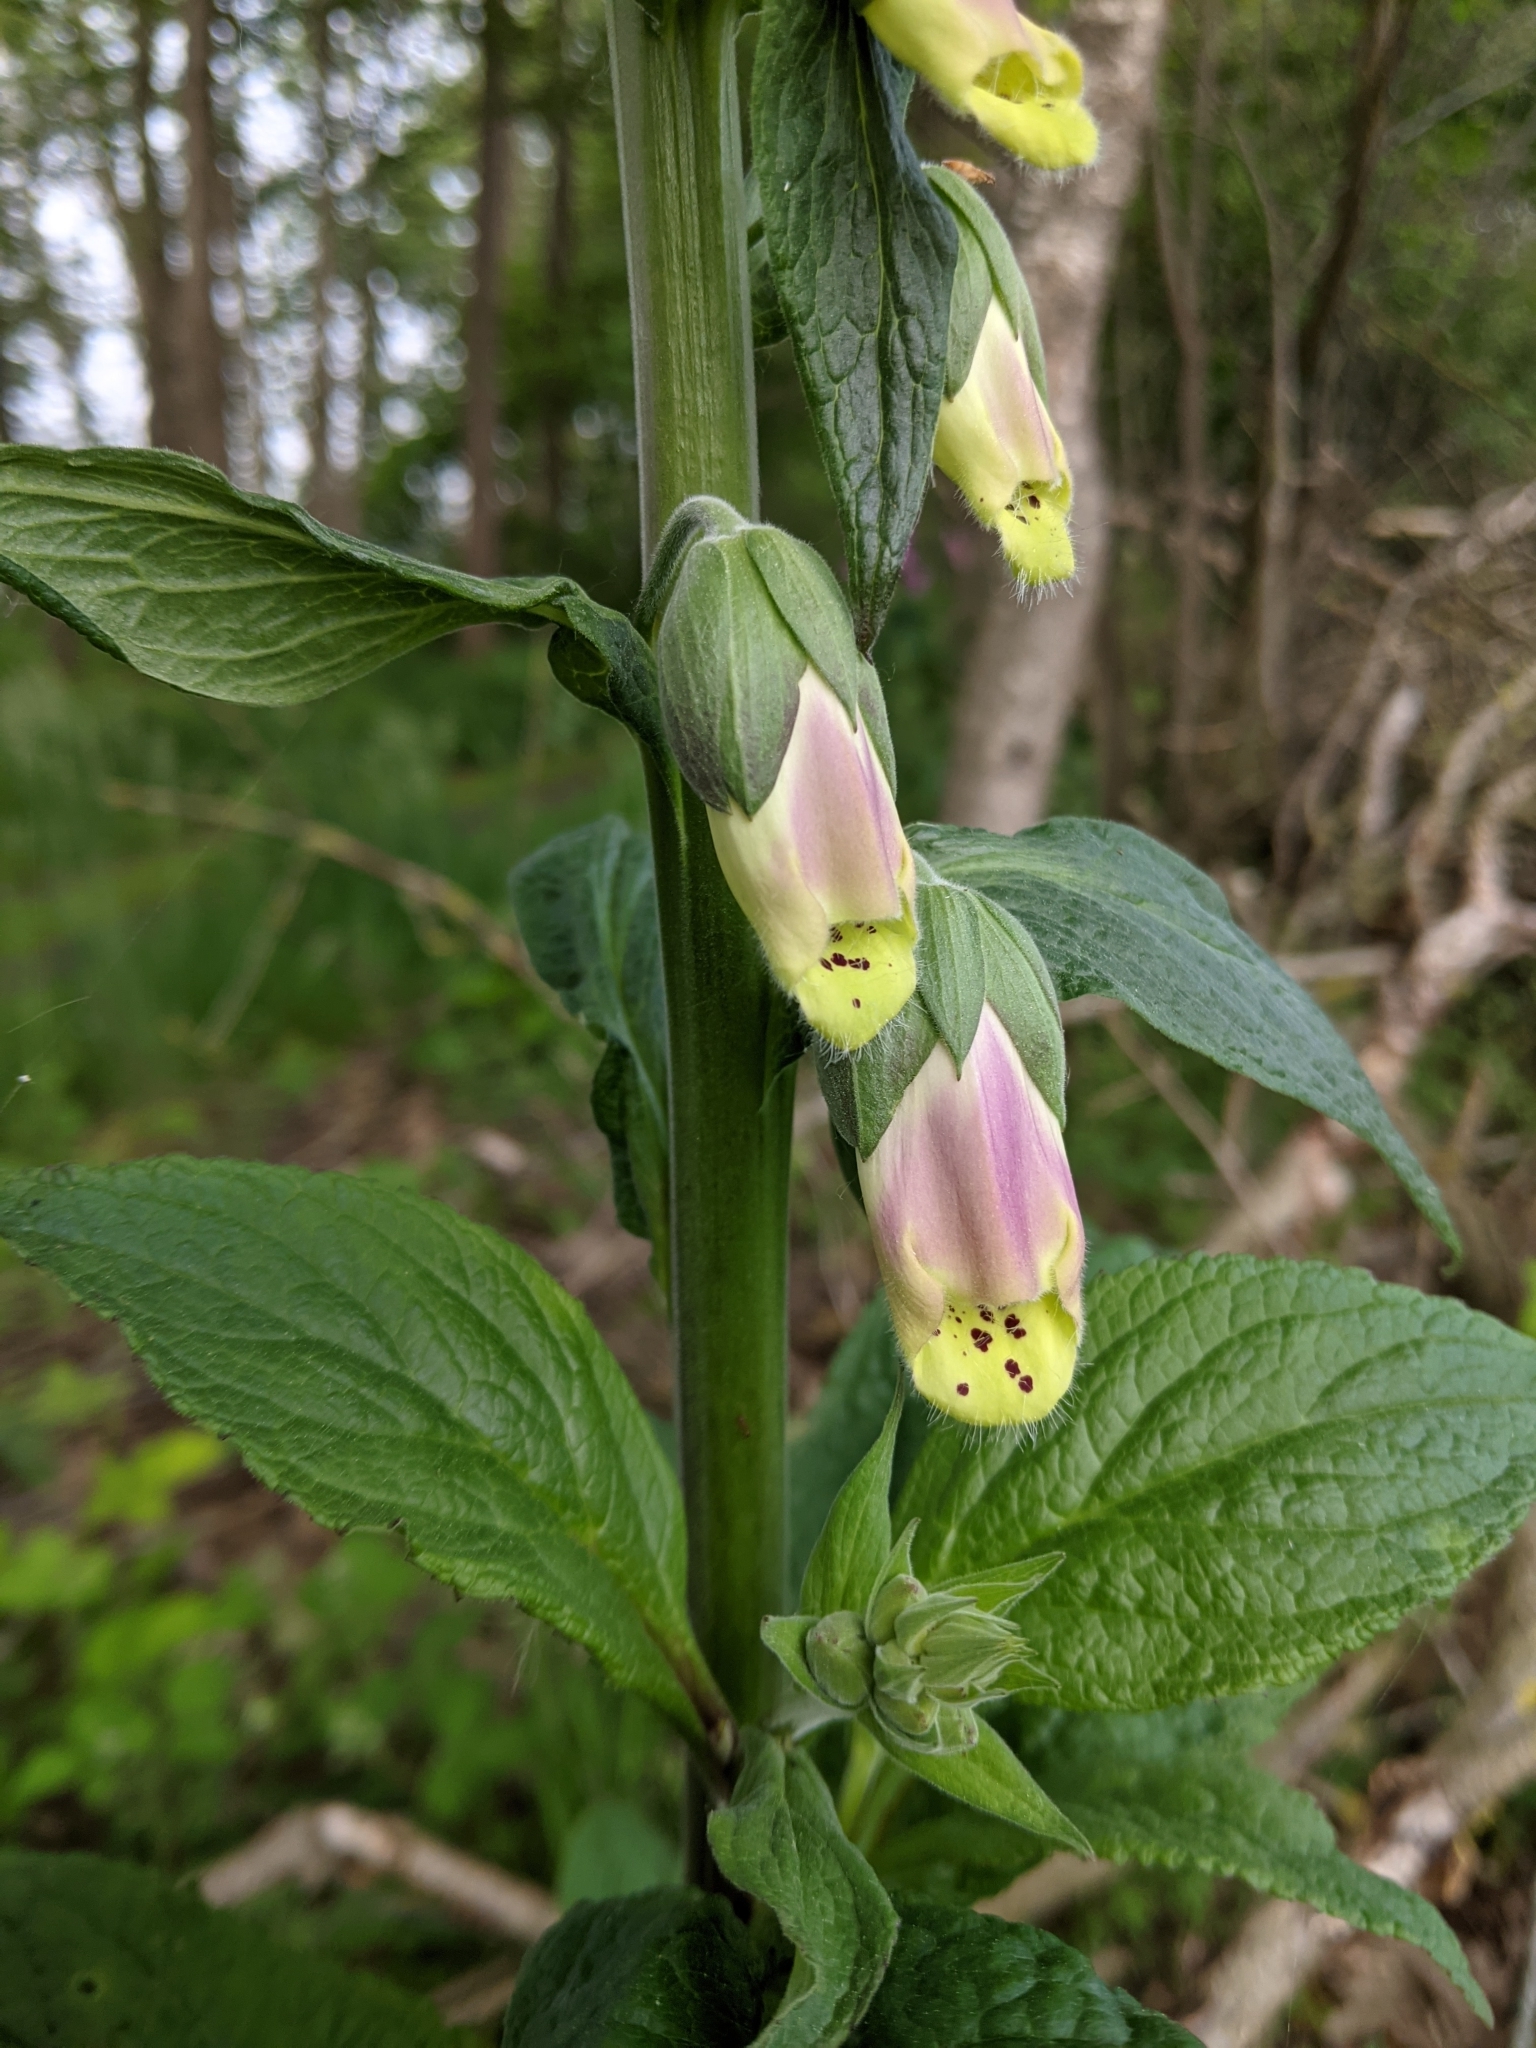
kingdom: Plantae
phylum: Tracheophyta
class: Magnoliopsida
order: Lamiales
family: Plantaginaceae
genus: Digitalis
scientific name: Digitalis purpurea
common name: Foxglove
